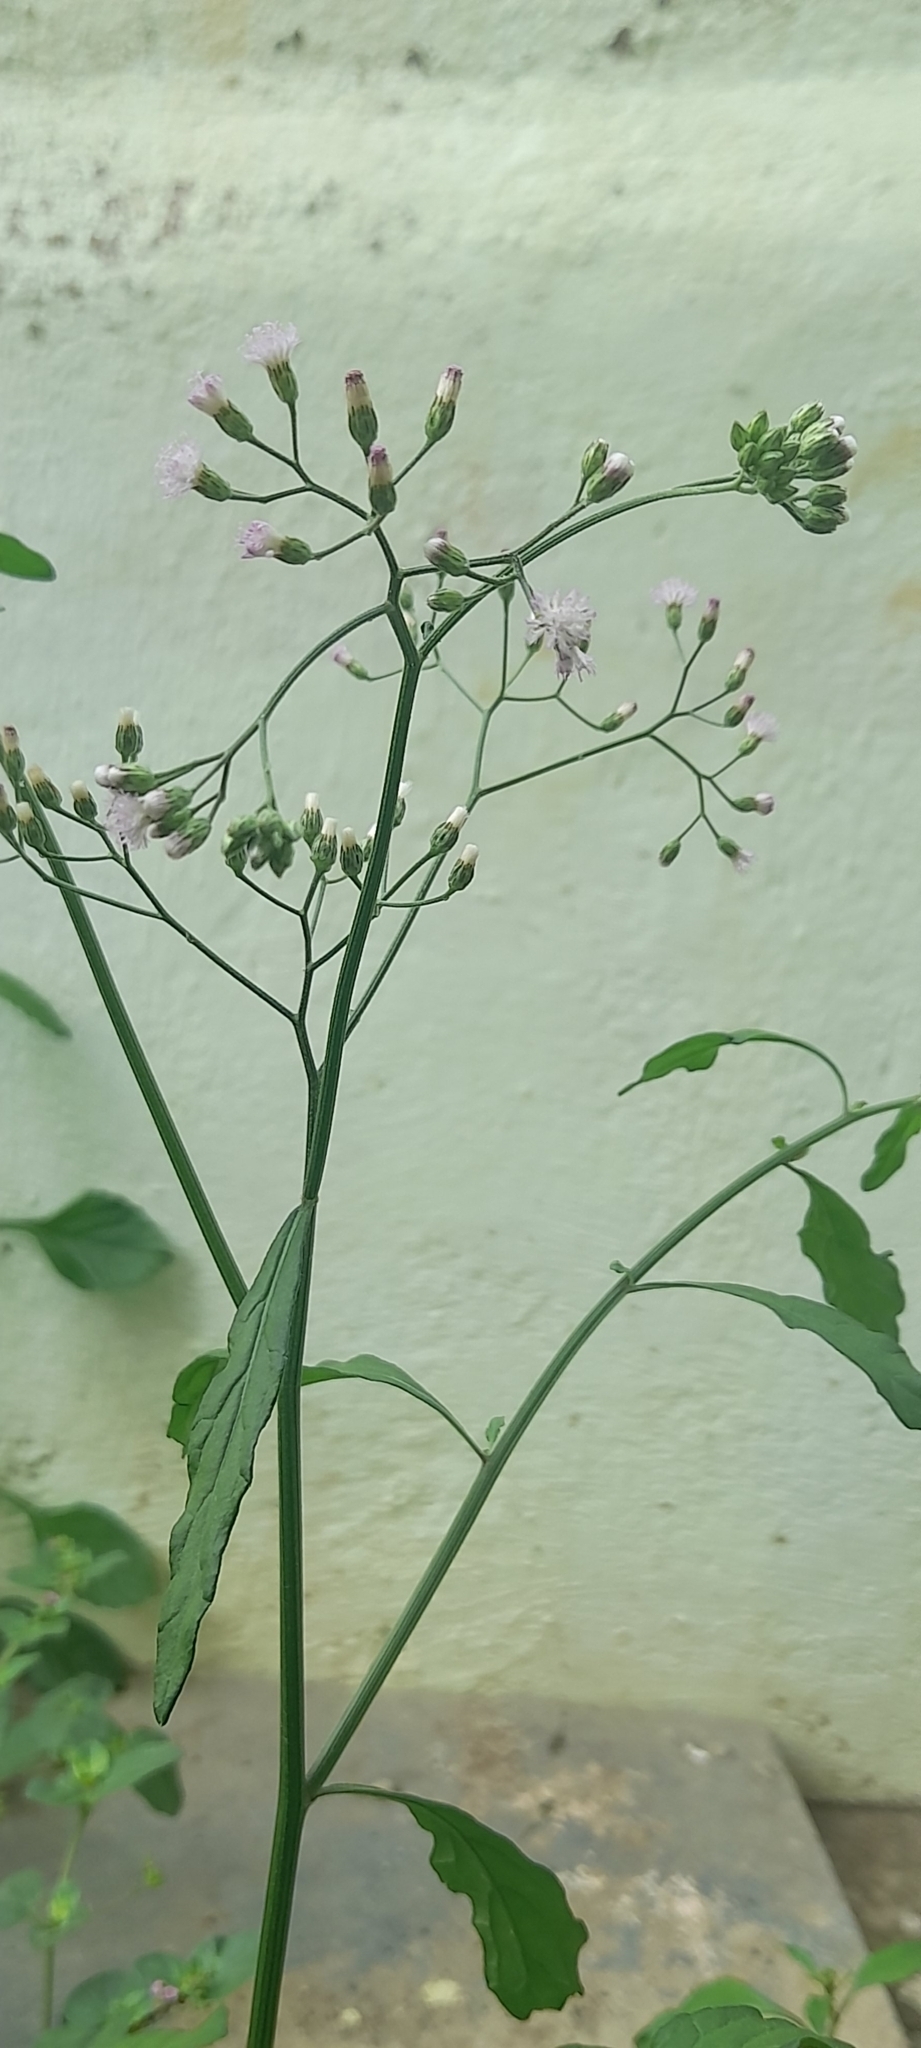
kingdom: Plantae
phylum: Tracheophyta
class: Magnoliopsida
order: Asterales
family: Asteraceae
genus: Cyanthillium
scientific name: Cyanthillium cinereum
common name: Little ironweed
